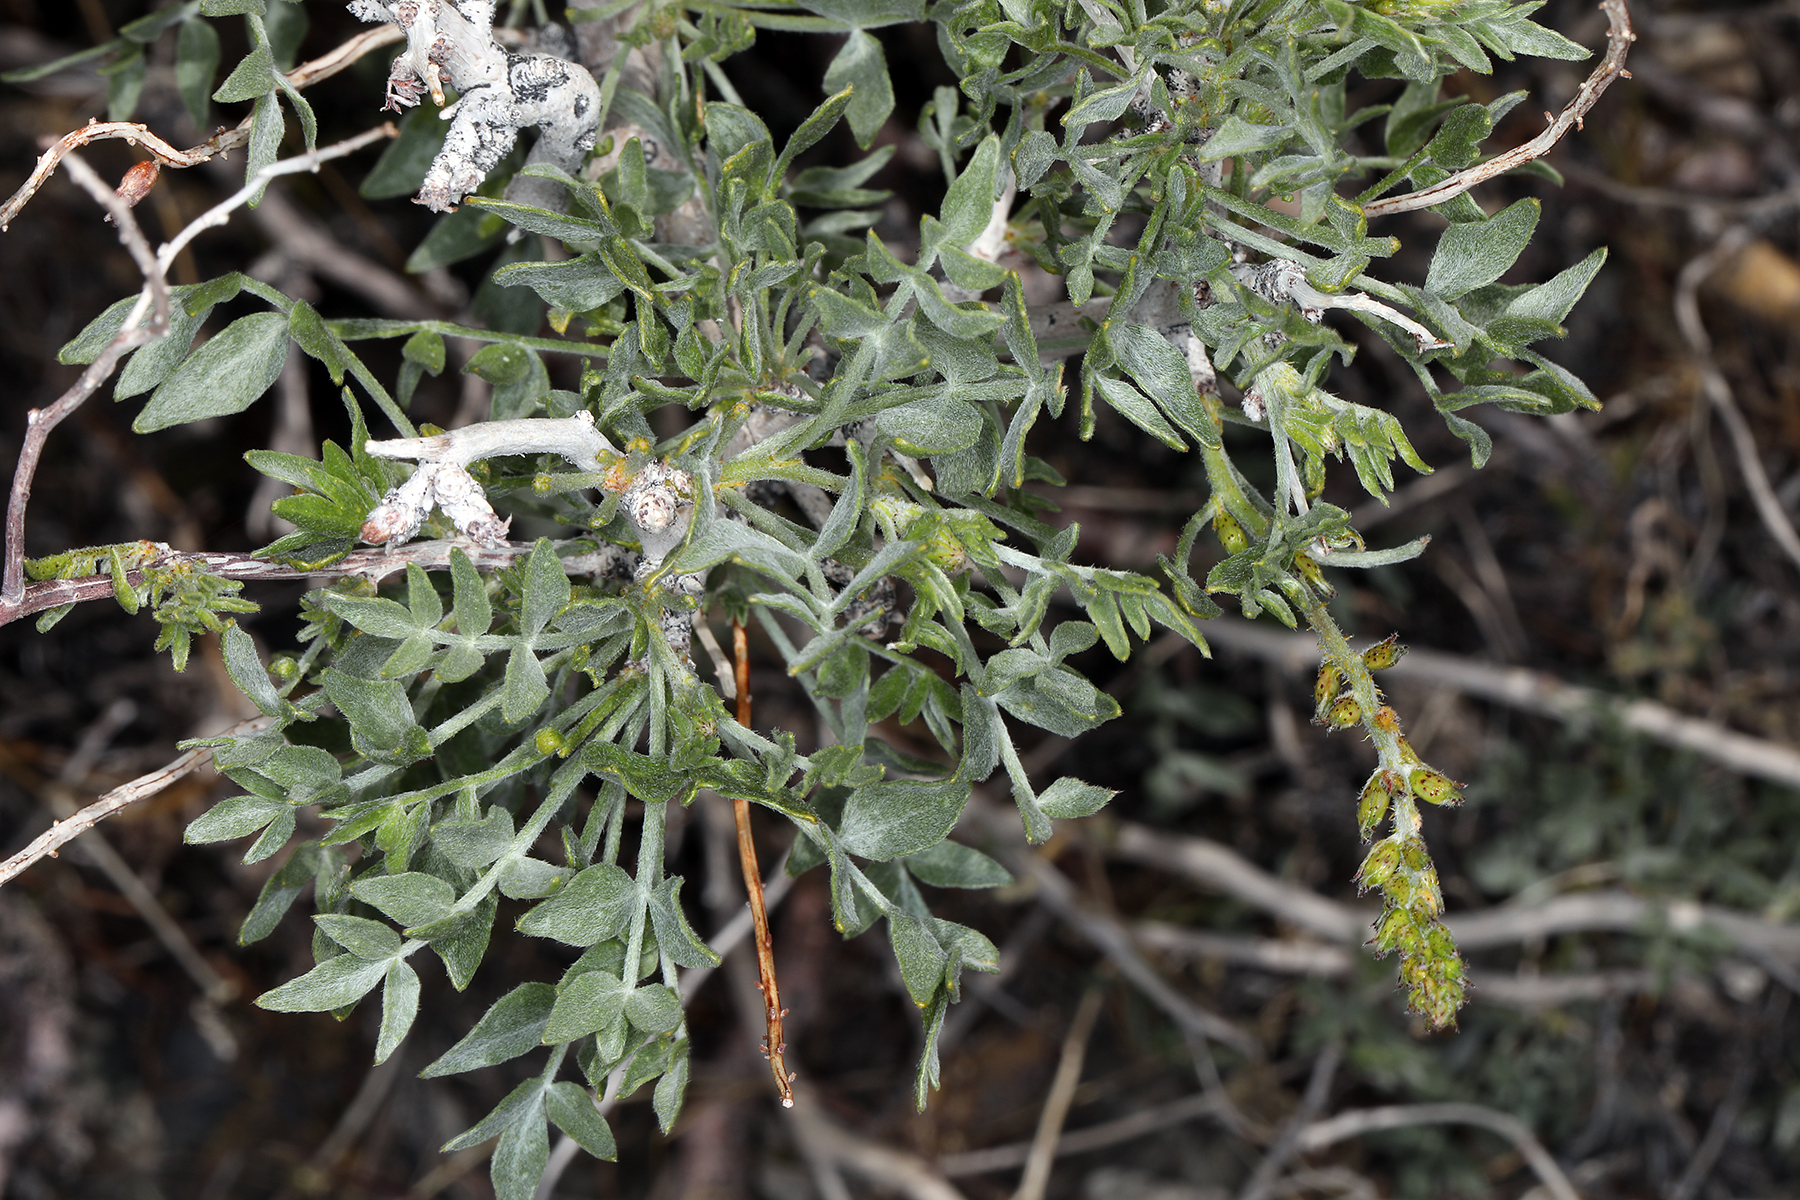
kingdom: Plantae
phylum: Tracheophyta
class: Magnoliopsida
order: Fabales
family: Fabaceae
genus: Psorothamnus
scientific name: Psorothamnus arborescens
